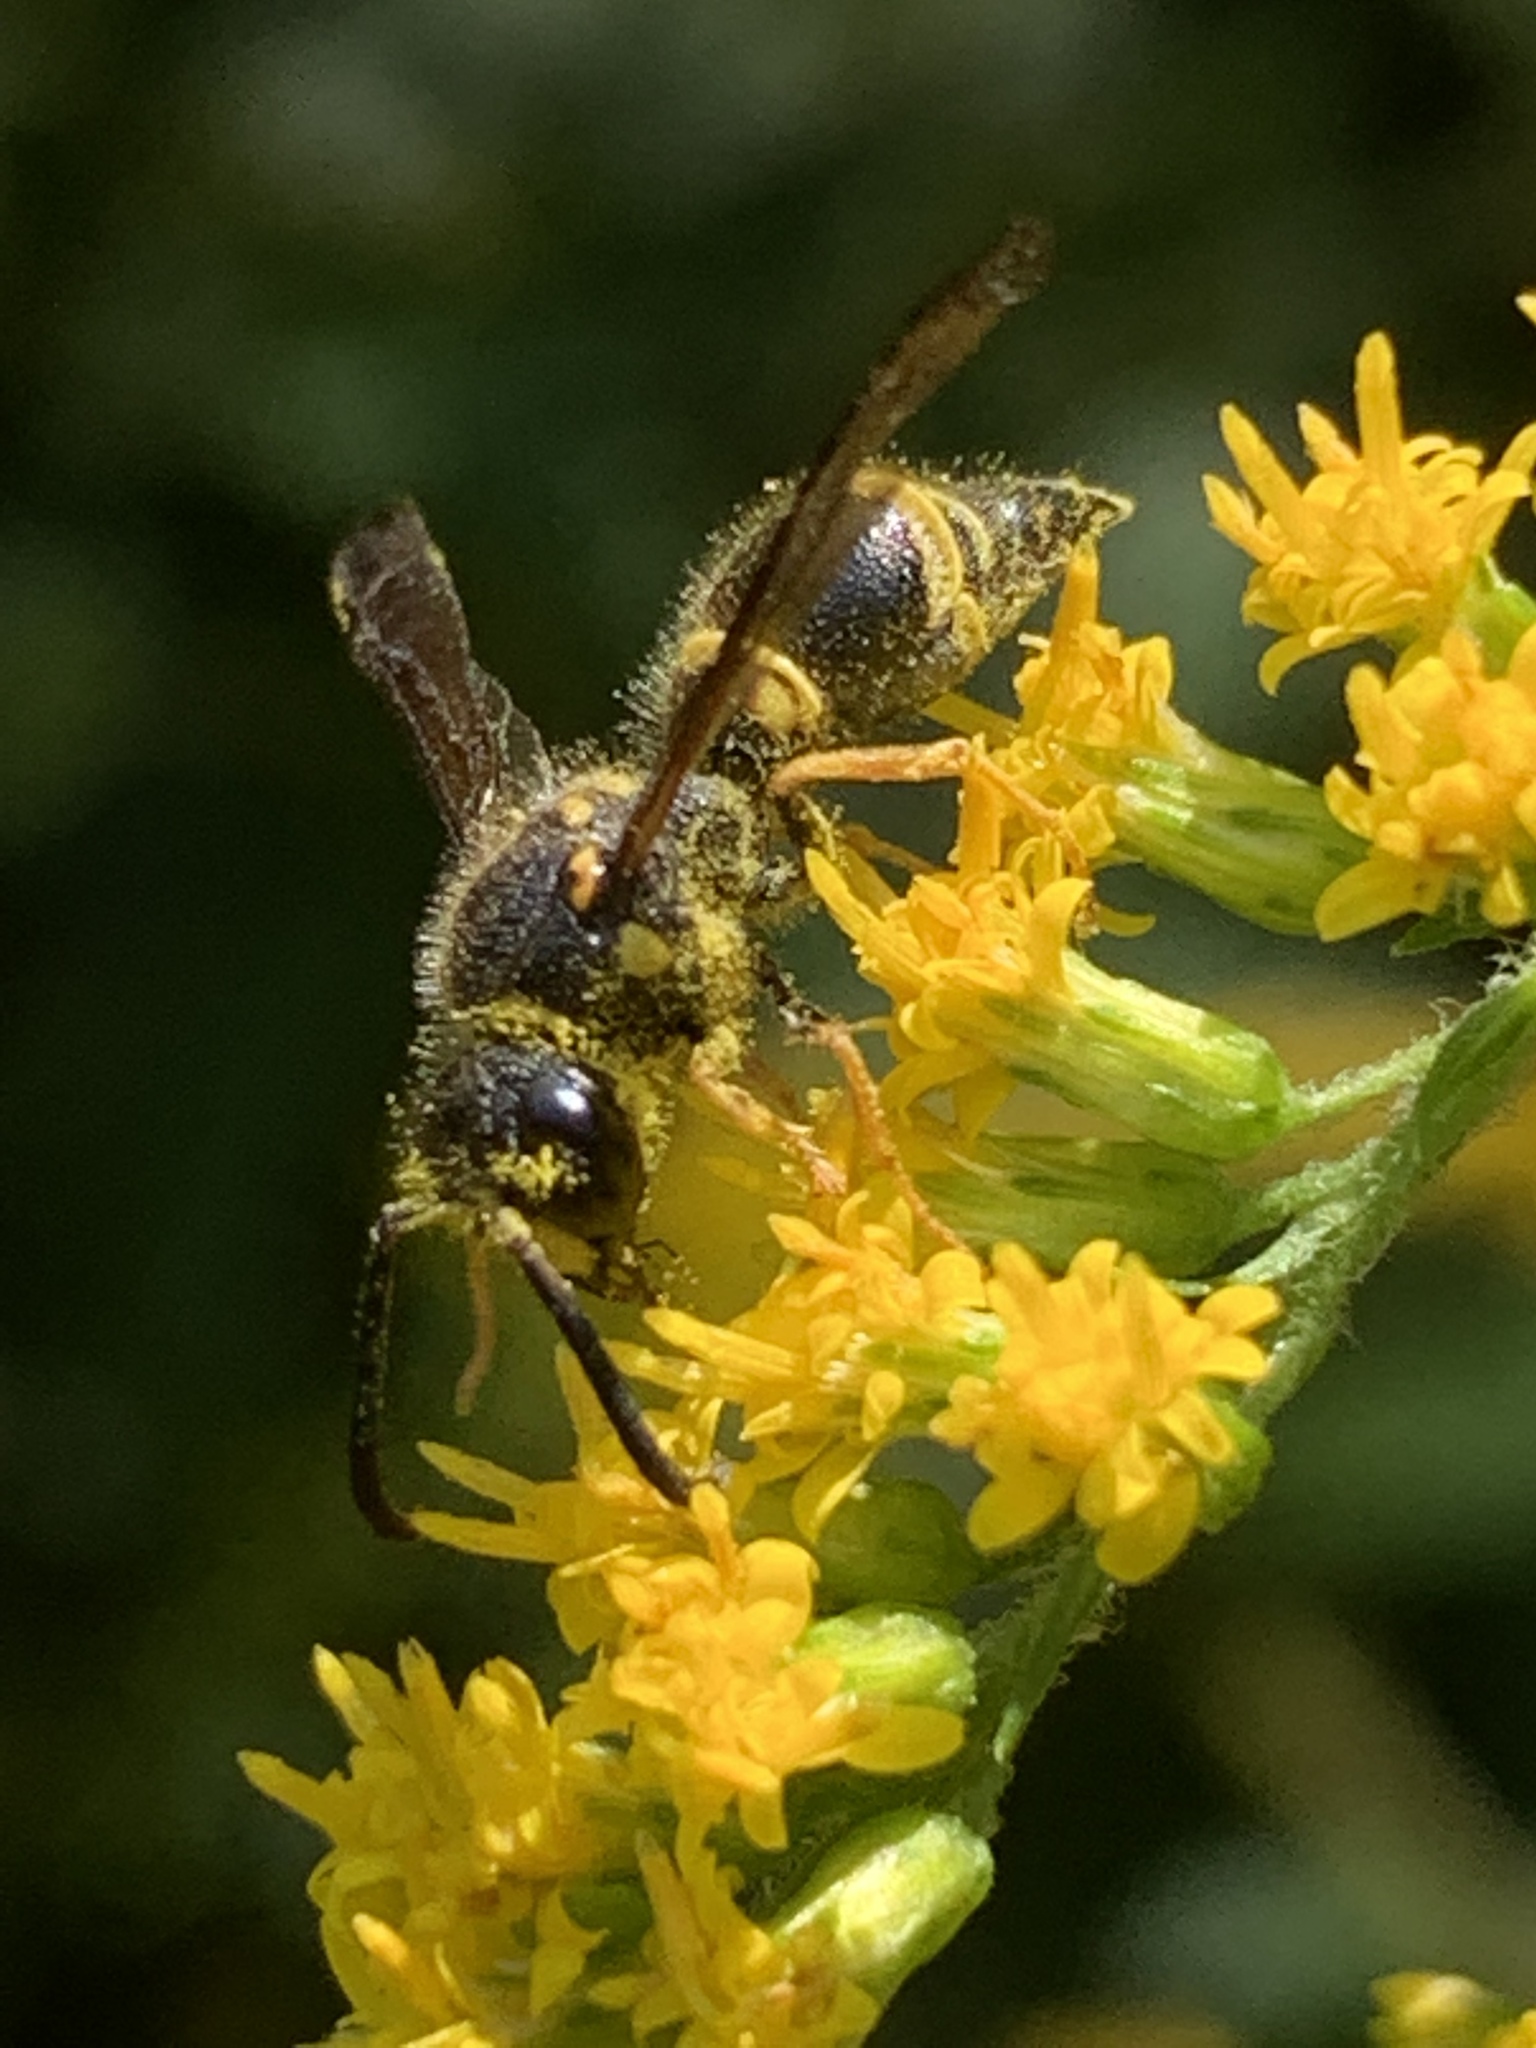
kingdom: Animalia
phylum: Arthropoda
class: Insecta
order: Hymenoptera
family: Vespidae
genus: Ancistrocerus
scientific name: Ancistrocerus campestris
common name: Smiling mason wasp
